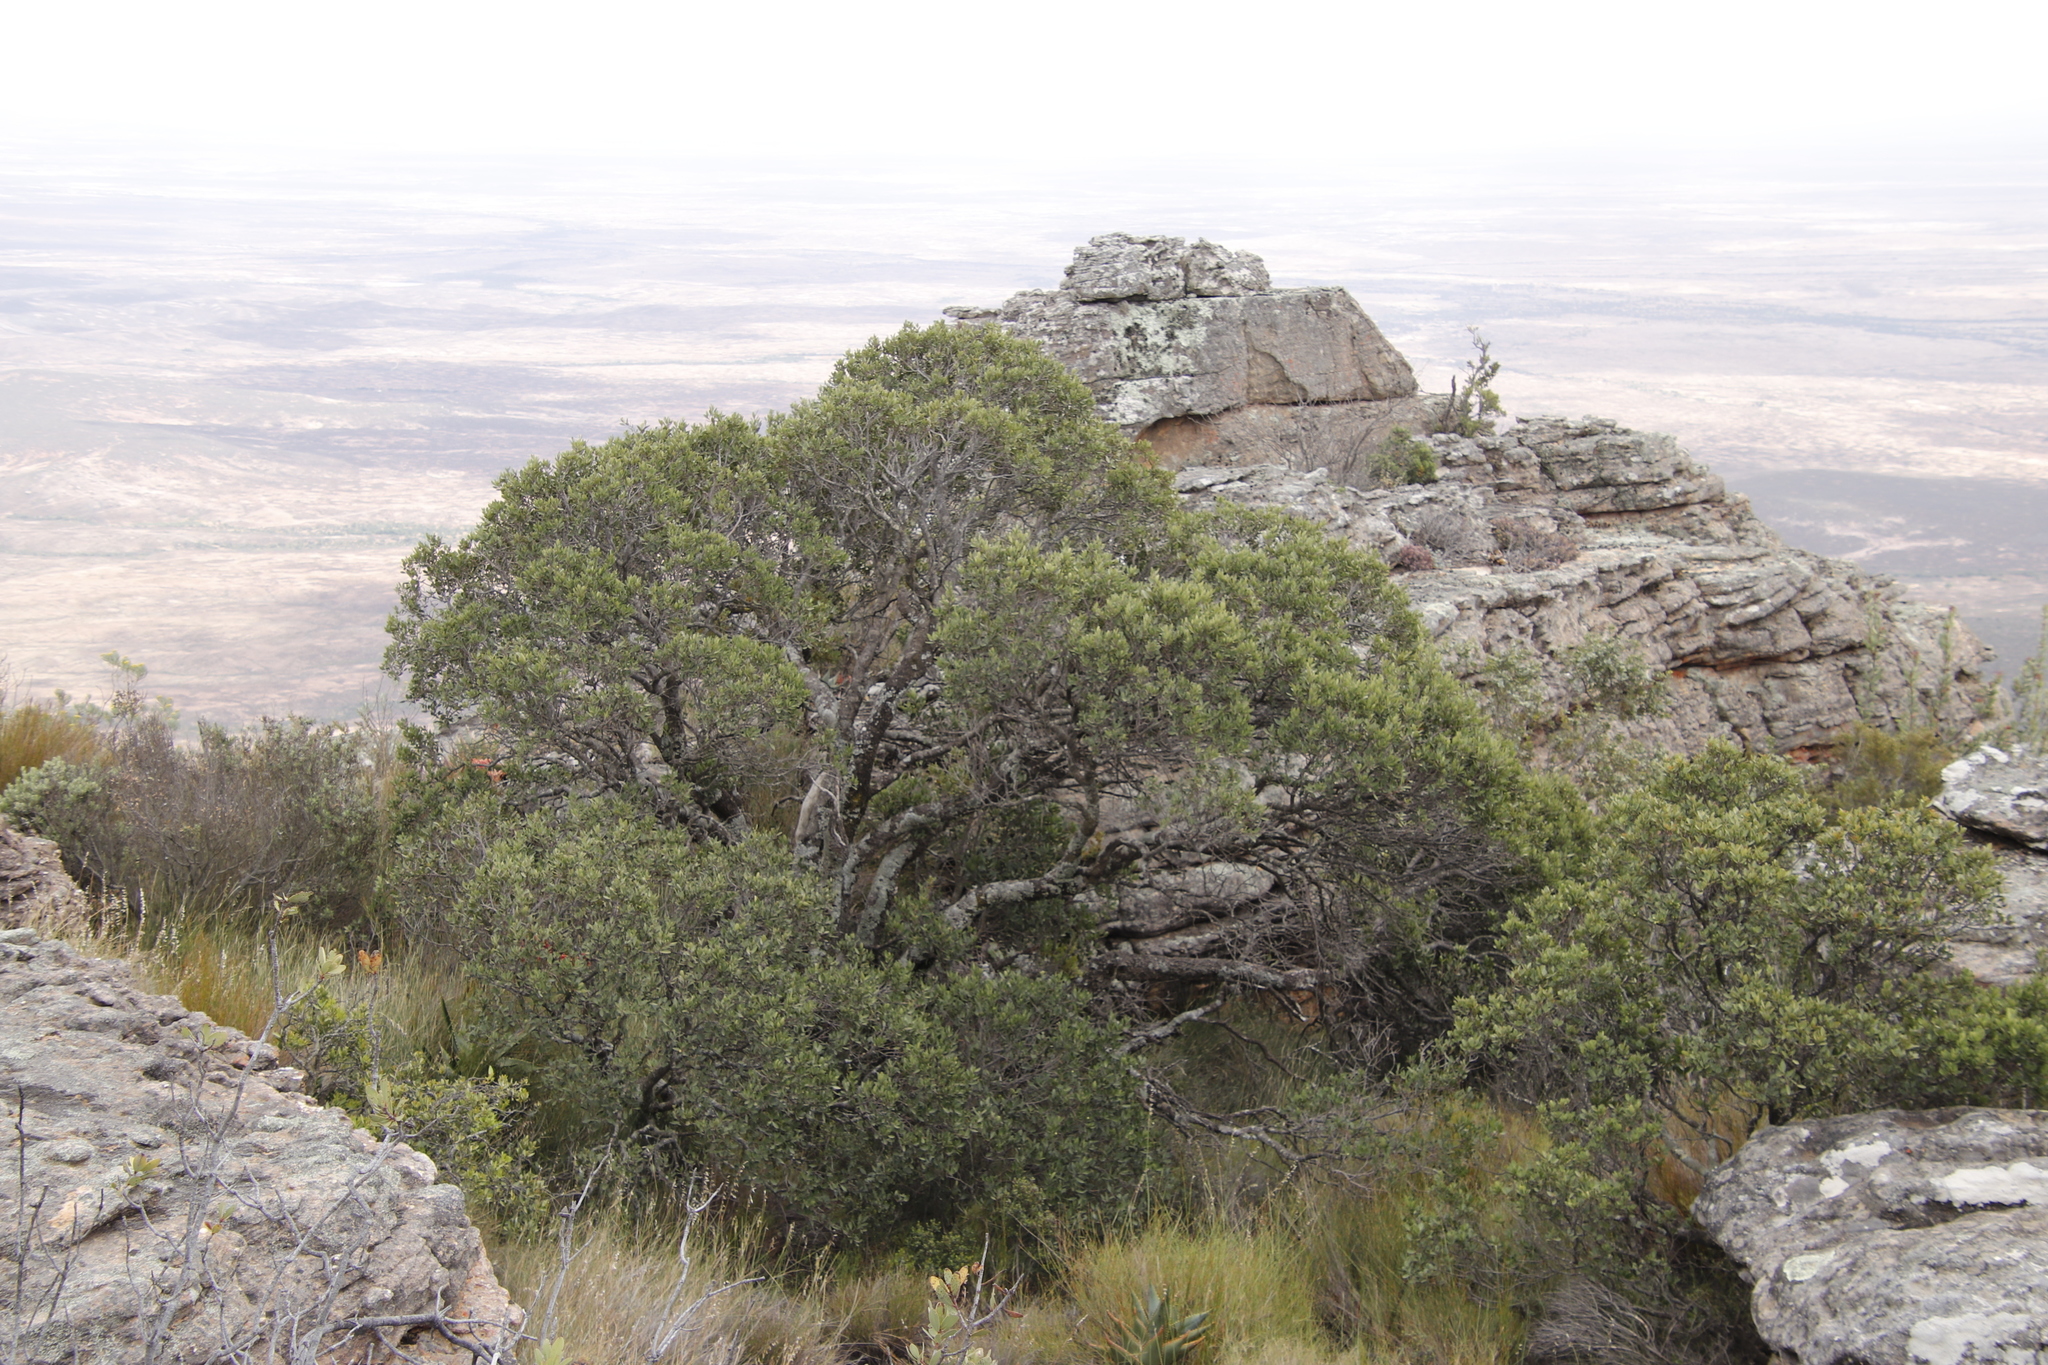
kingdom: Plantae
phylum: Tracheophyta
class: Magnoliopsida
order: Celastrales
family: Celastraceae
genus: Gymnosporia
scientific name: Gymnosporia laurina
